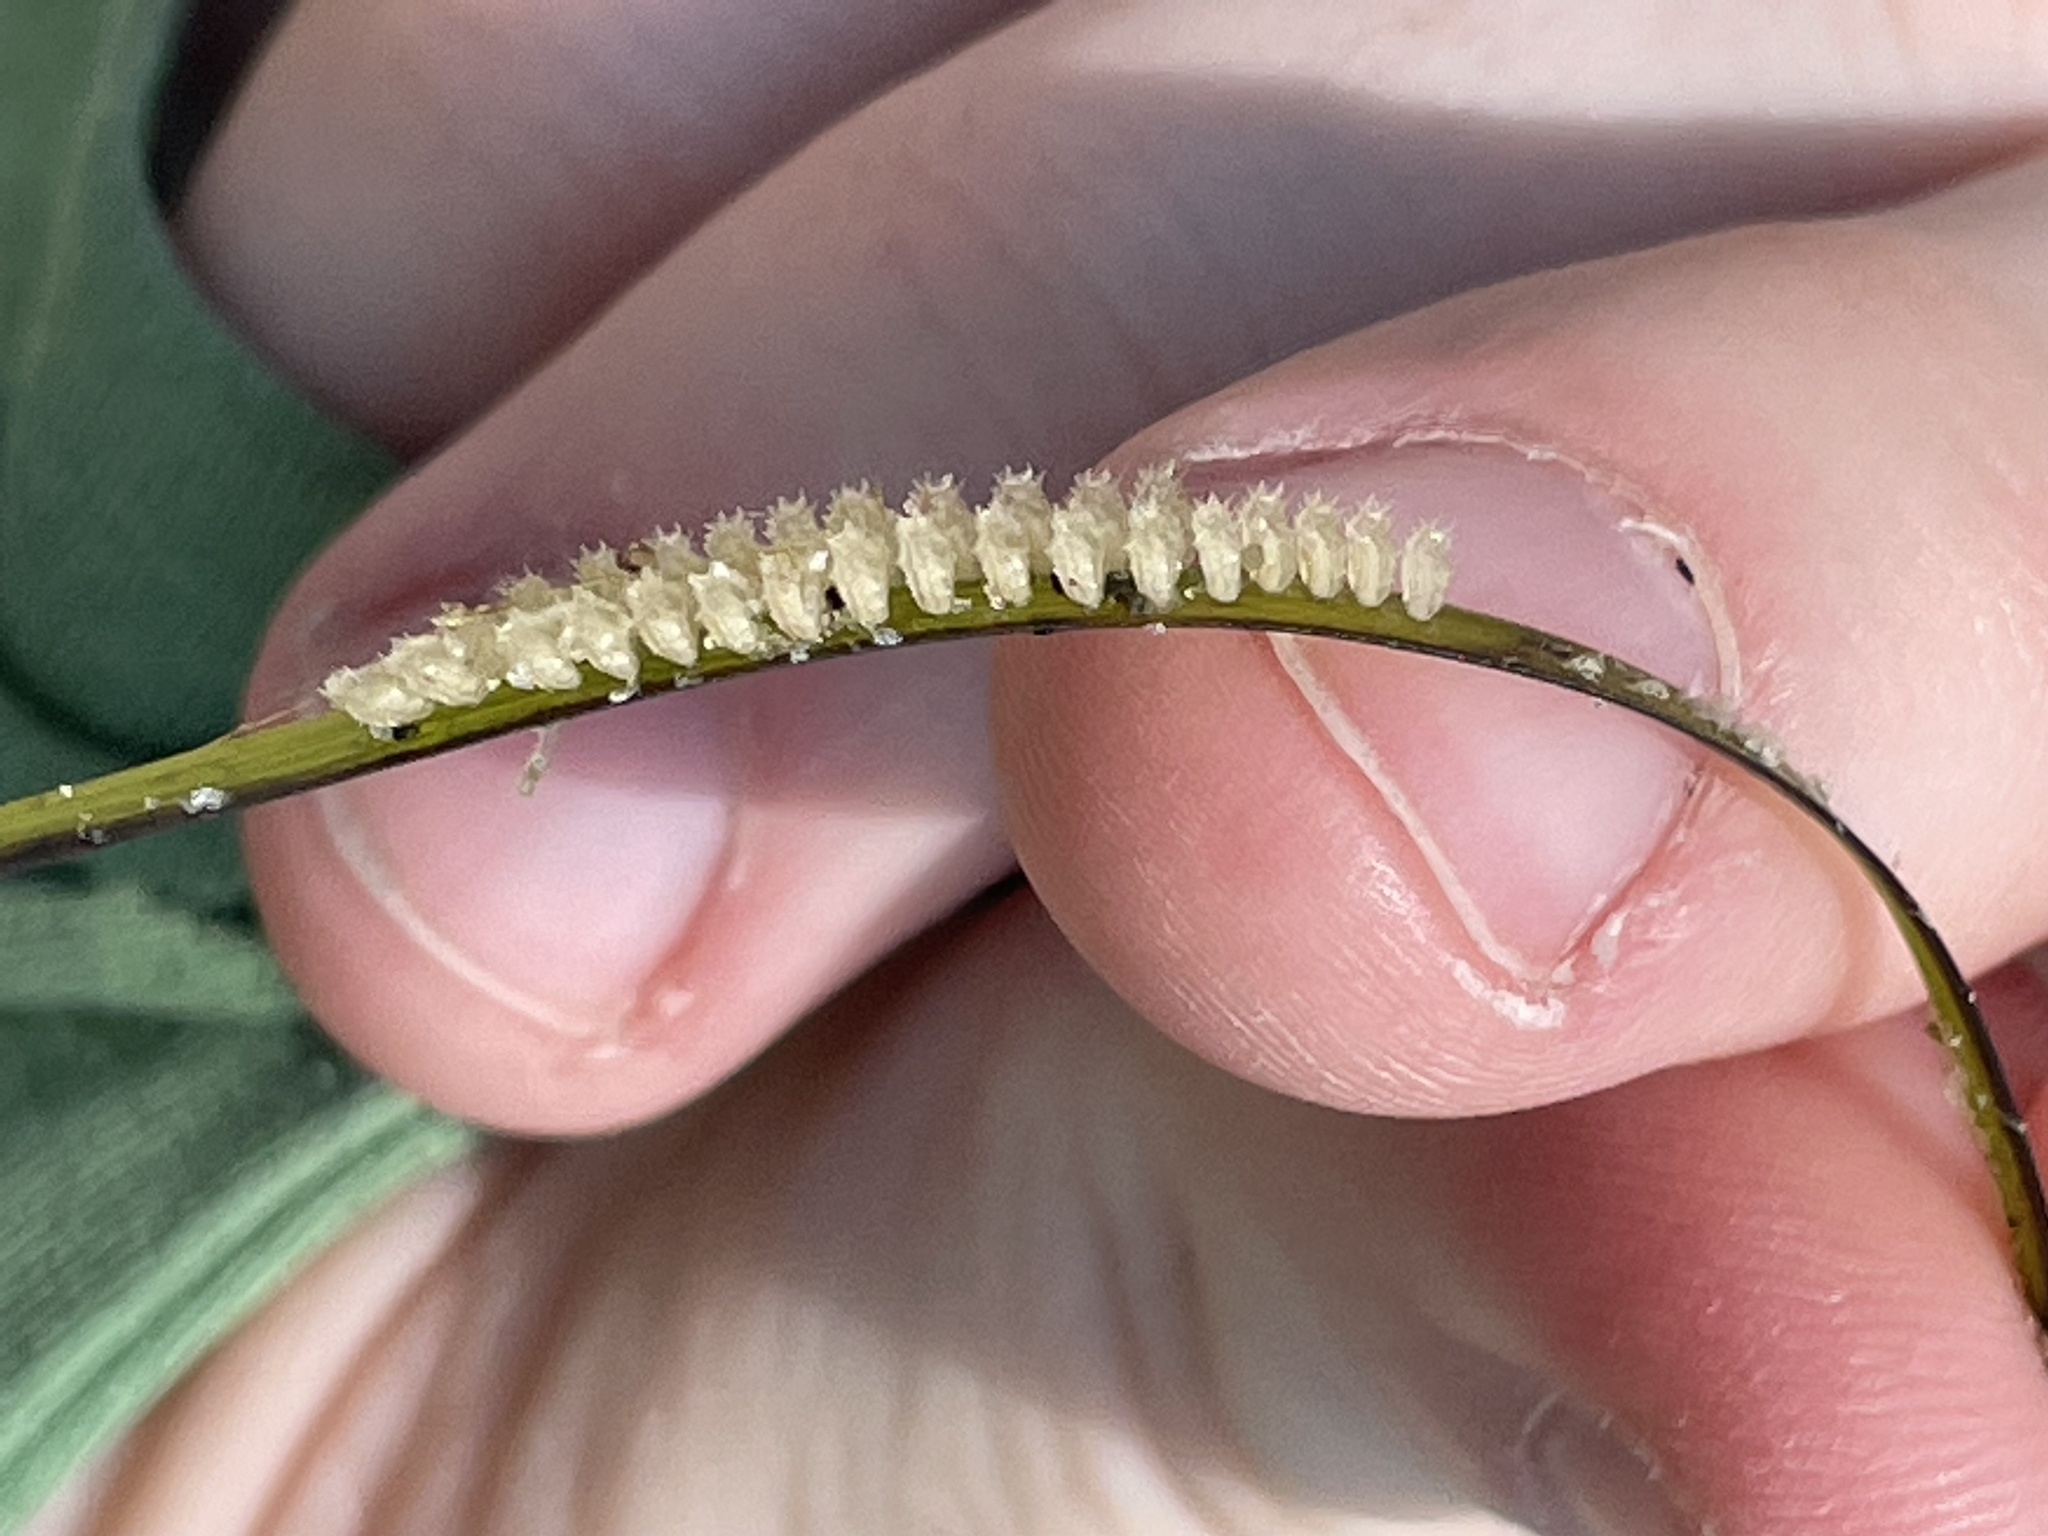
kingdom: Animalia
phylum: Mollusca
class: Gastropoda
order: Neogastropoda
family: Nassariidae
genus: Ilyanassa
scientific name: Ilyanassa obsoleta
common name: Eastern mudsnail
